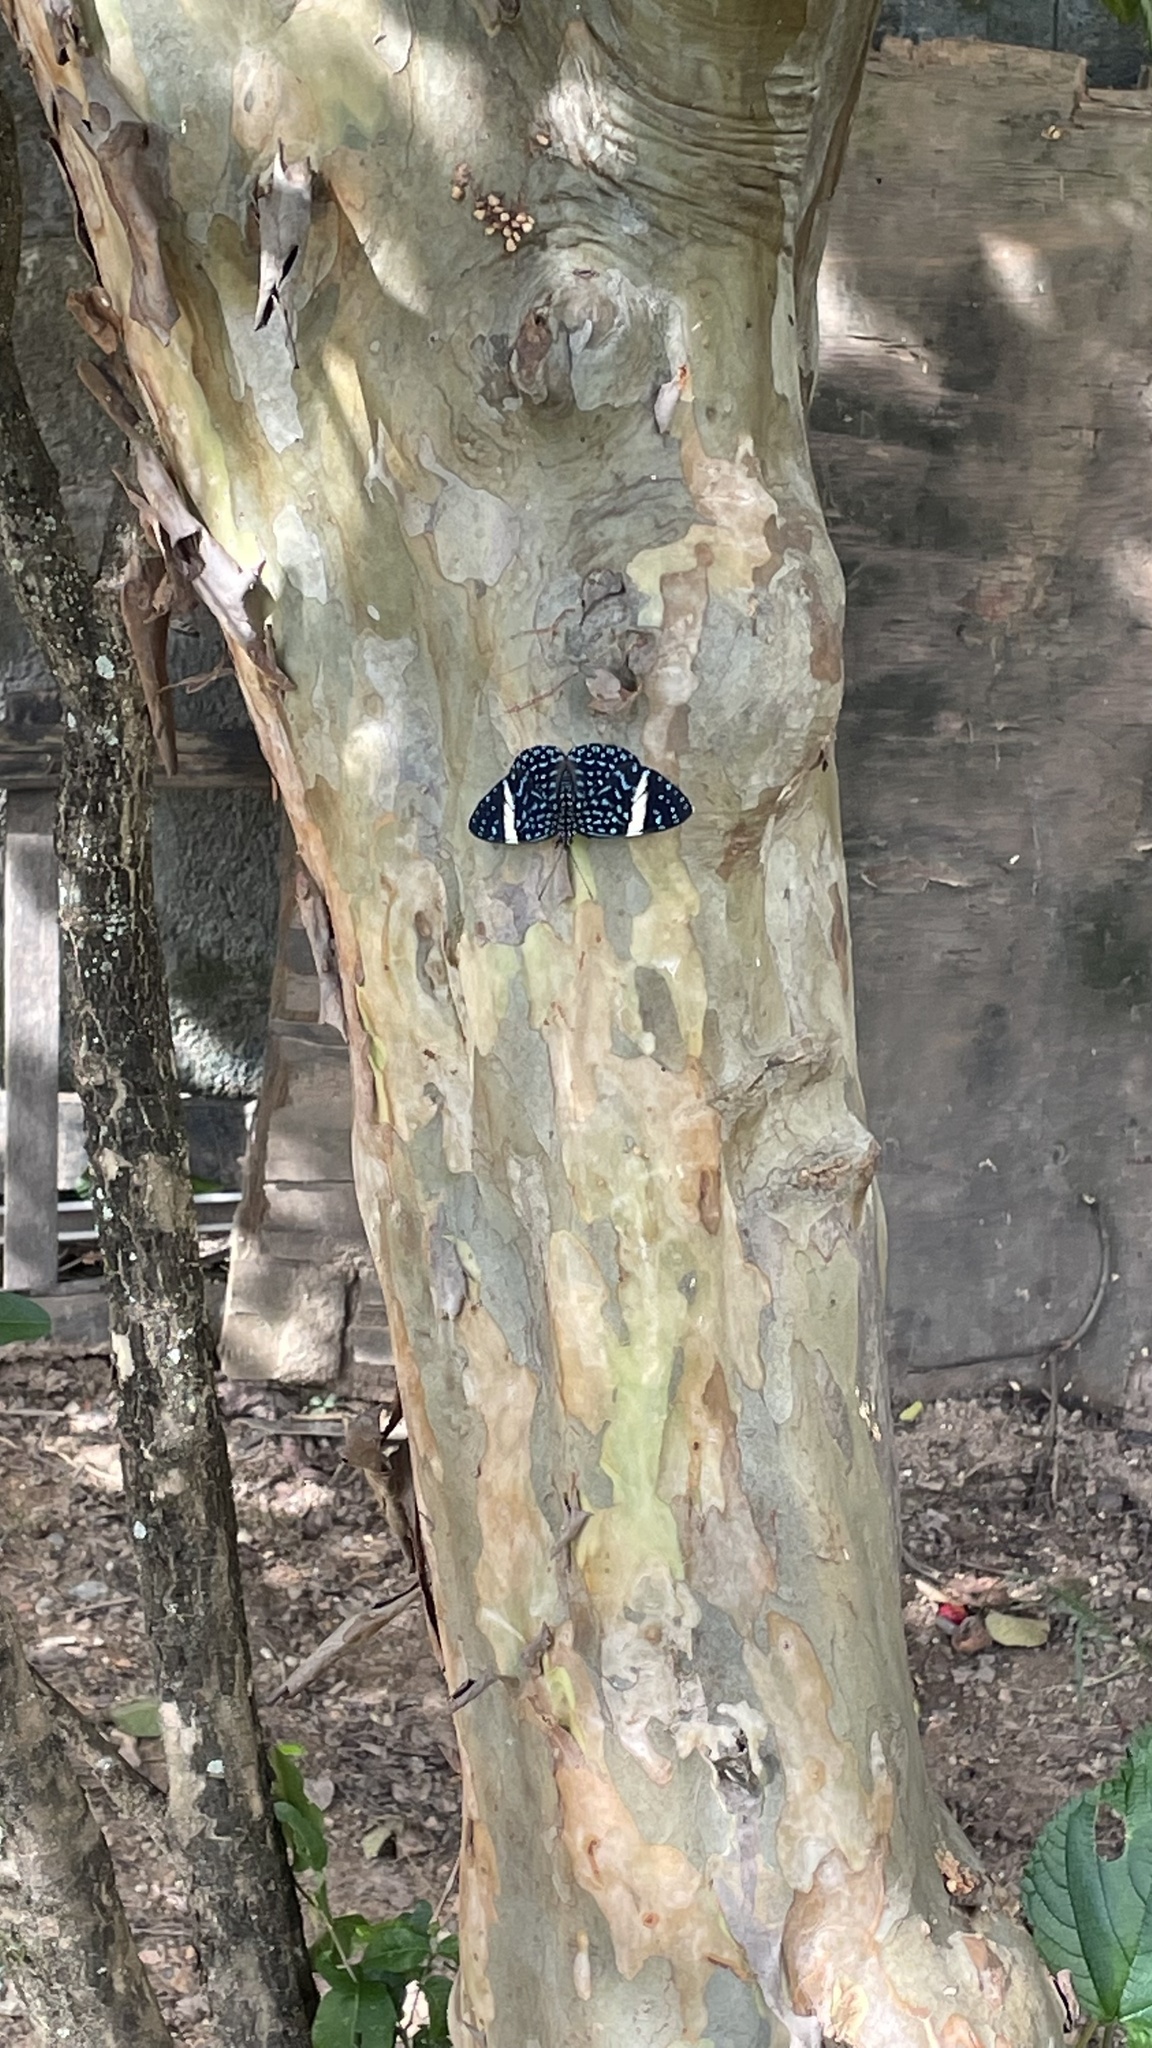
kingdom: Animalia
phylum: Arthropoda
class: Insecta
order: Lepidoptera
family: Nymphalidae
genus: Hamadryas
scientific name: Hamadryas laodamia
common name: Starry night cracker
